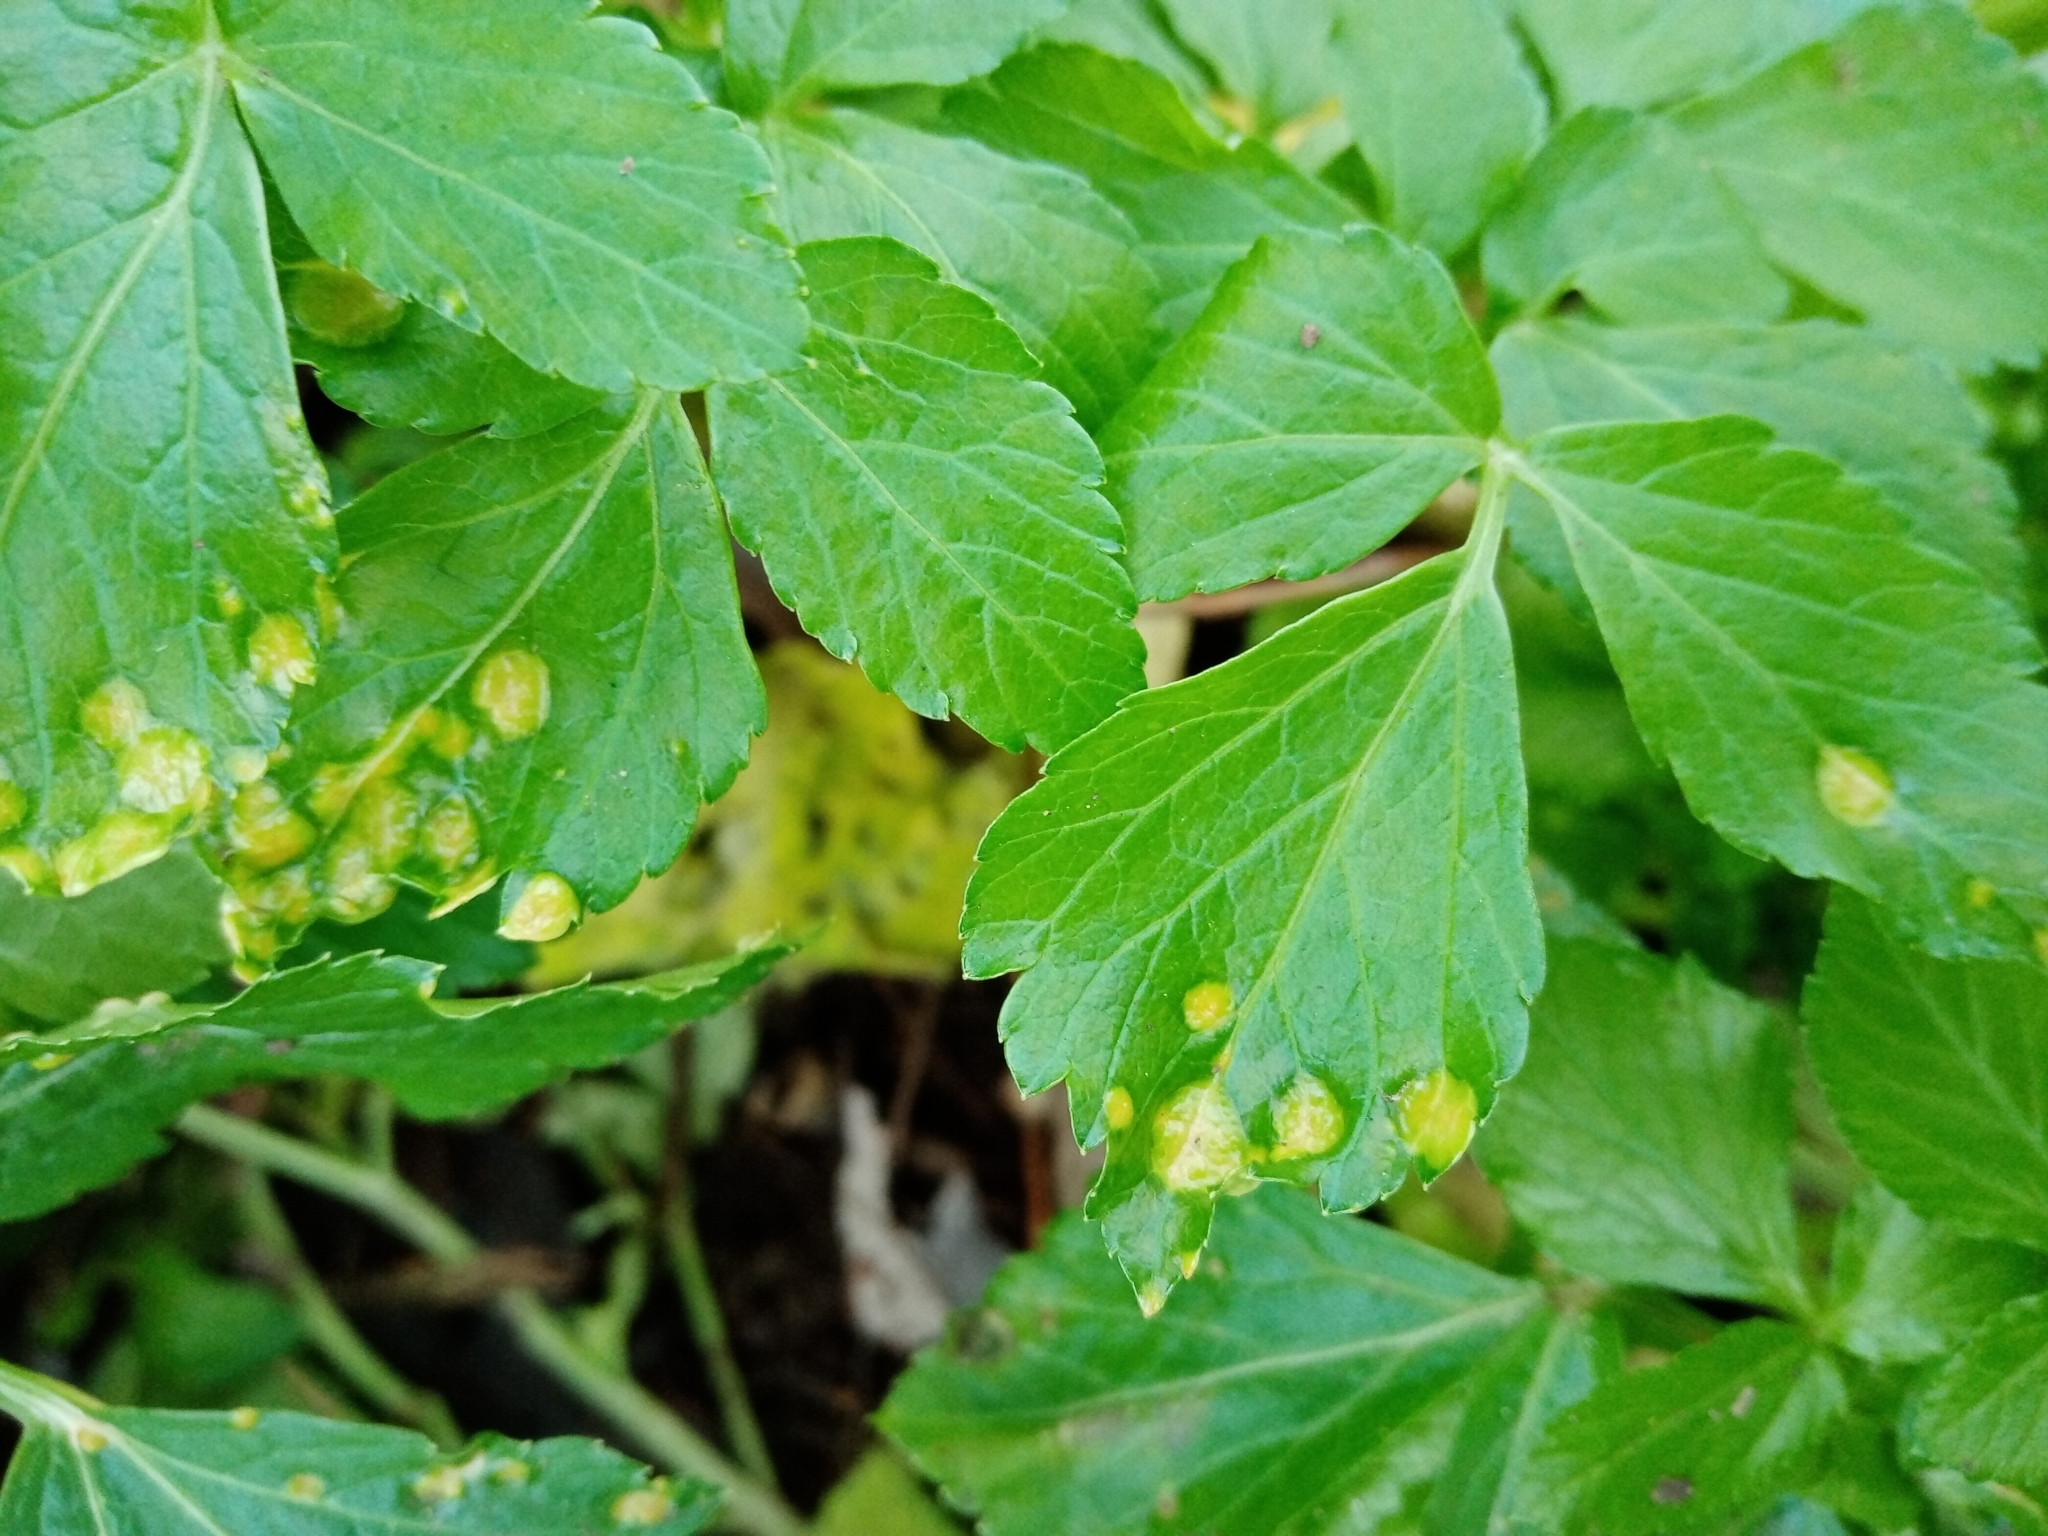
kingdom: Fungi
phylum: Basidiomycota
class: Pucciniomycetes
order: Pucciniales
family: Pucciniaceae
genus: Puccinia
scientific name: Puccinia smyrnii
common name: Alexanders rust
